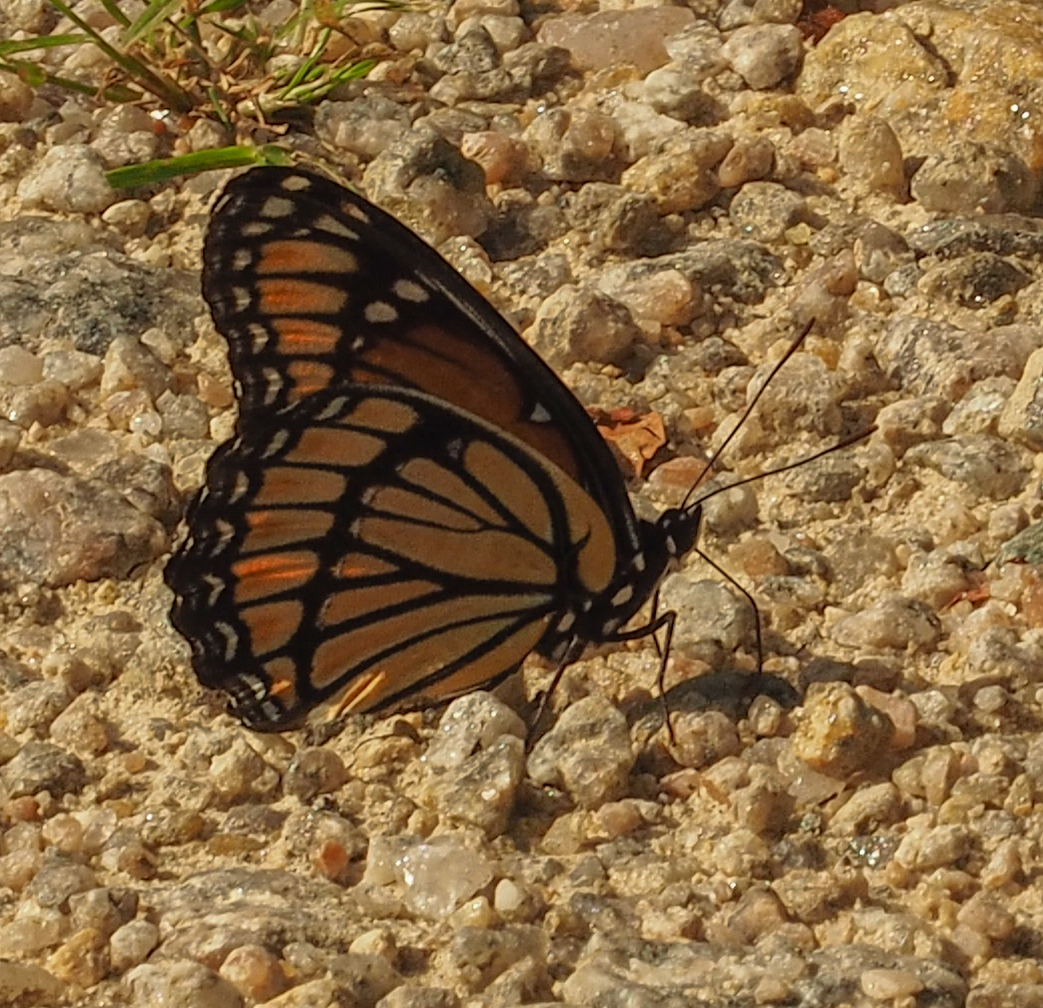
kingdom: Animalia
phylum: Arthropoda
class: Insecta
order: Lepidoptera
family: Nymphalidae
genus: Limenitis
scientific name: Limenitis archippus
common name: Viceroy
